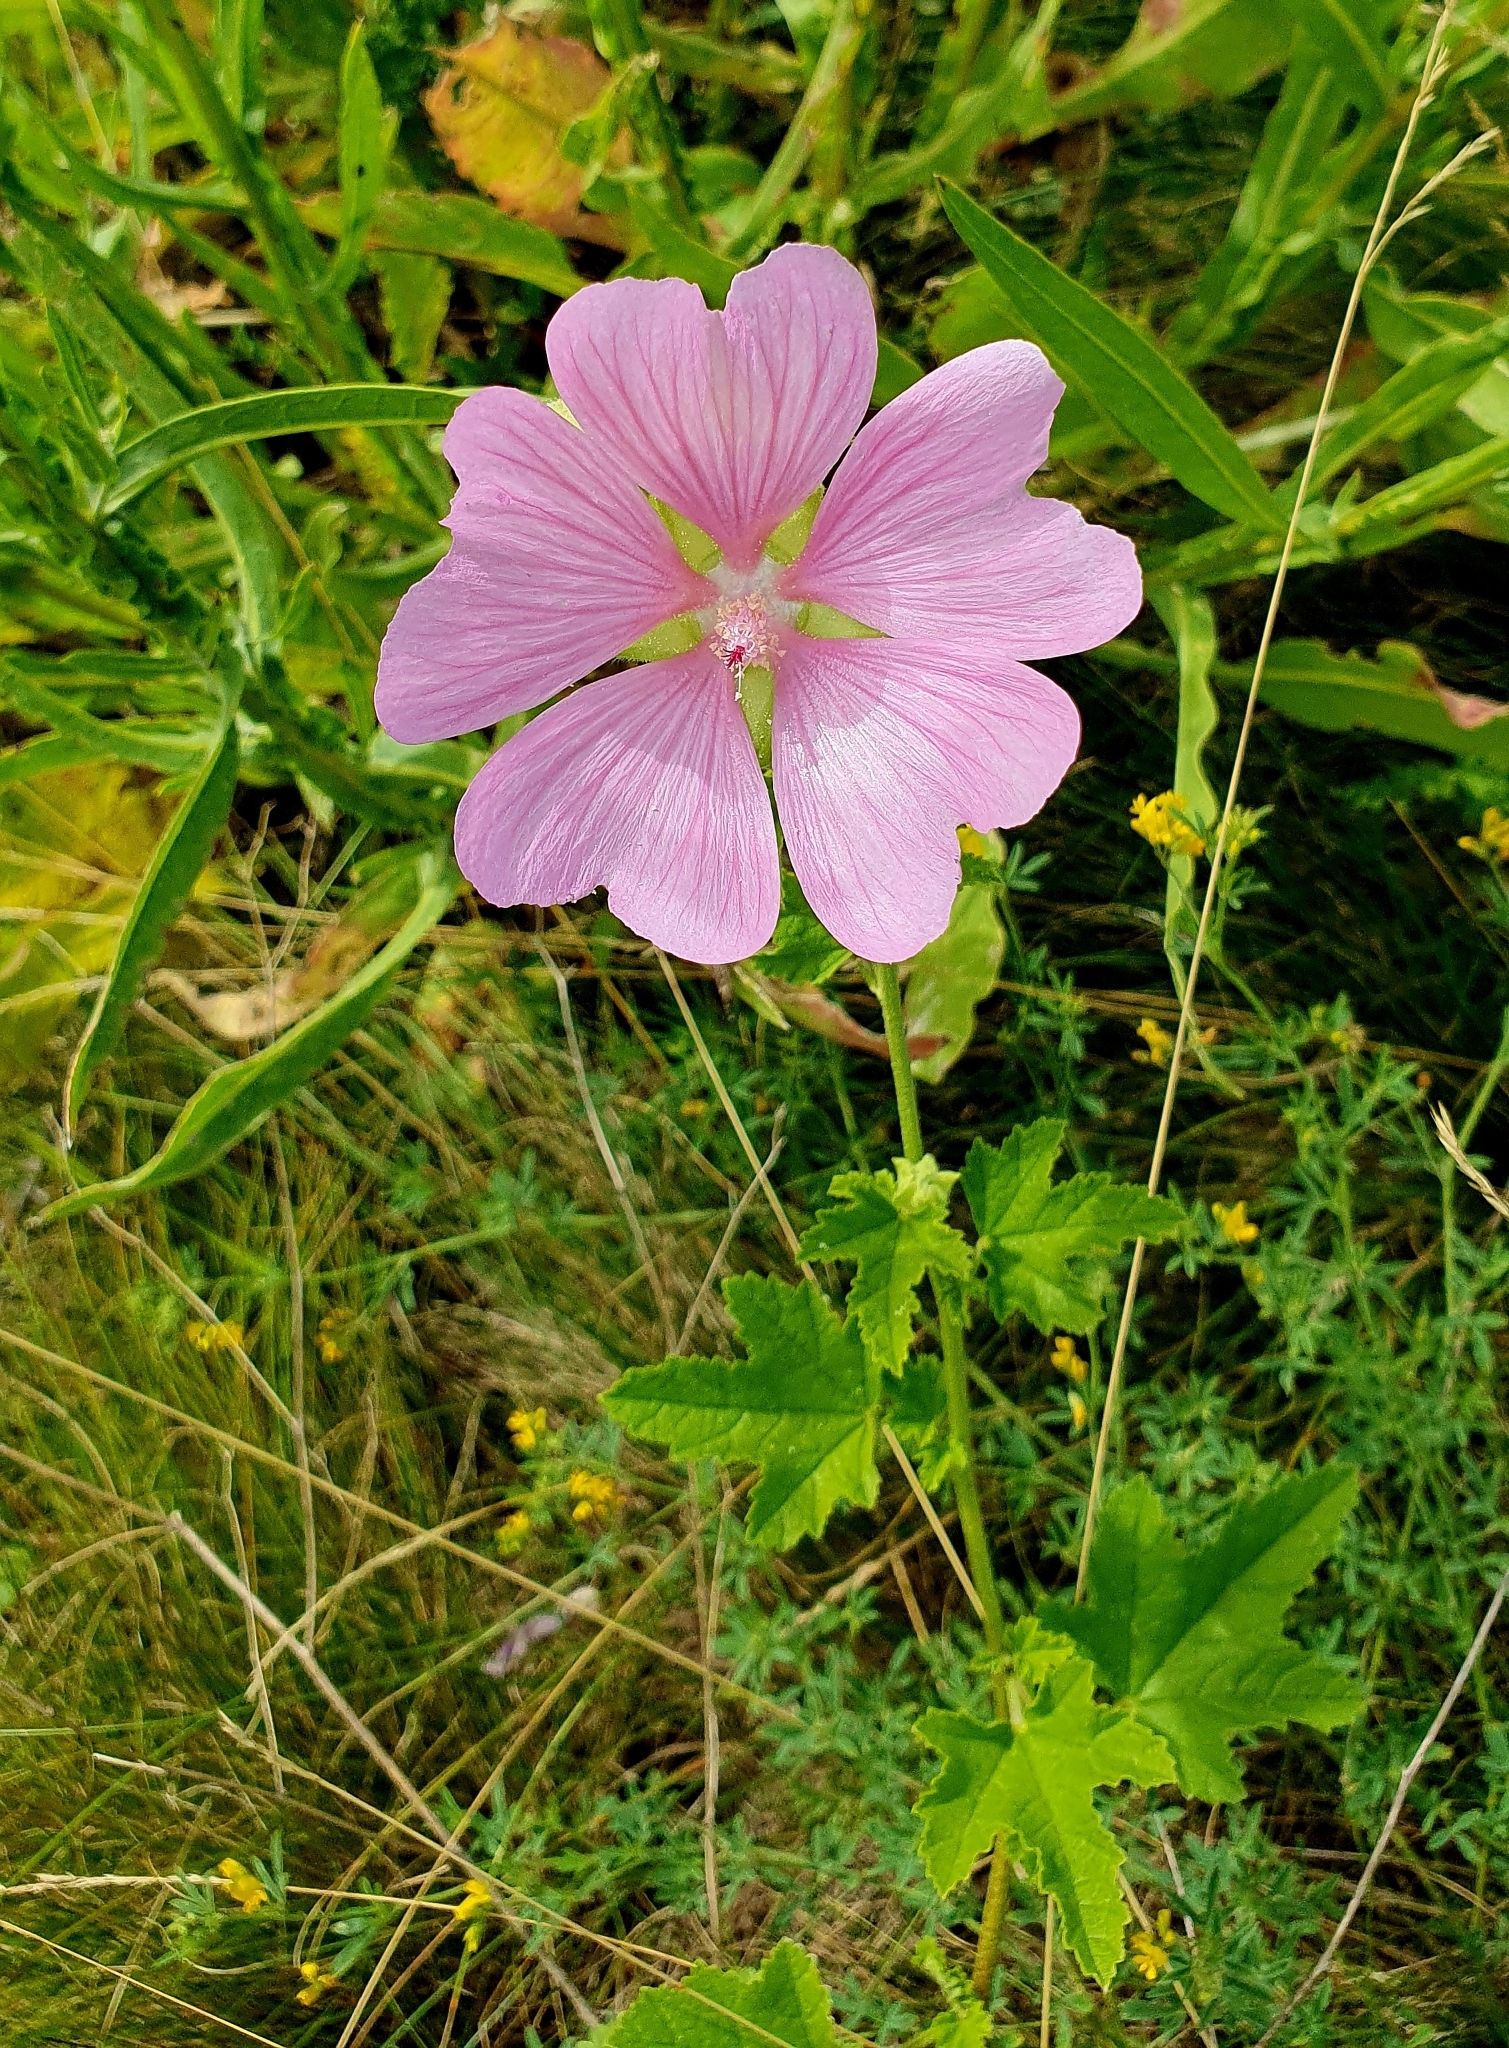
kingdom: Plantae
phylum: Tracheophyta
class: Magnoliopsida
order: Malvales
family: Malvaceae
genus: Malva
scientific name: Malva thuringiaca
